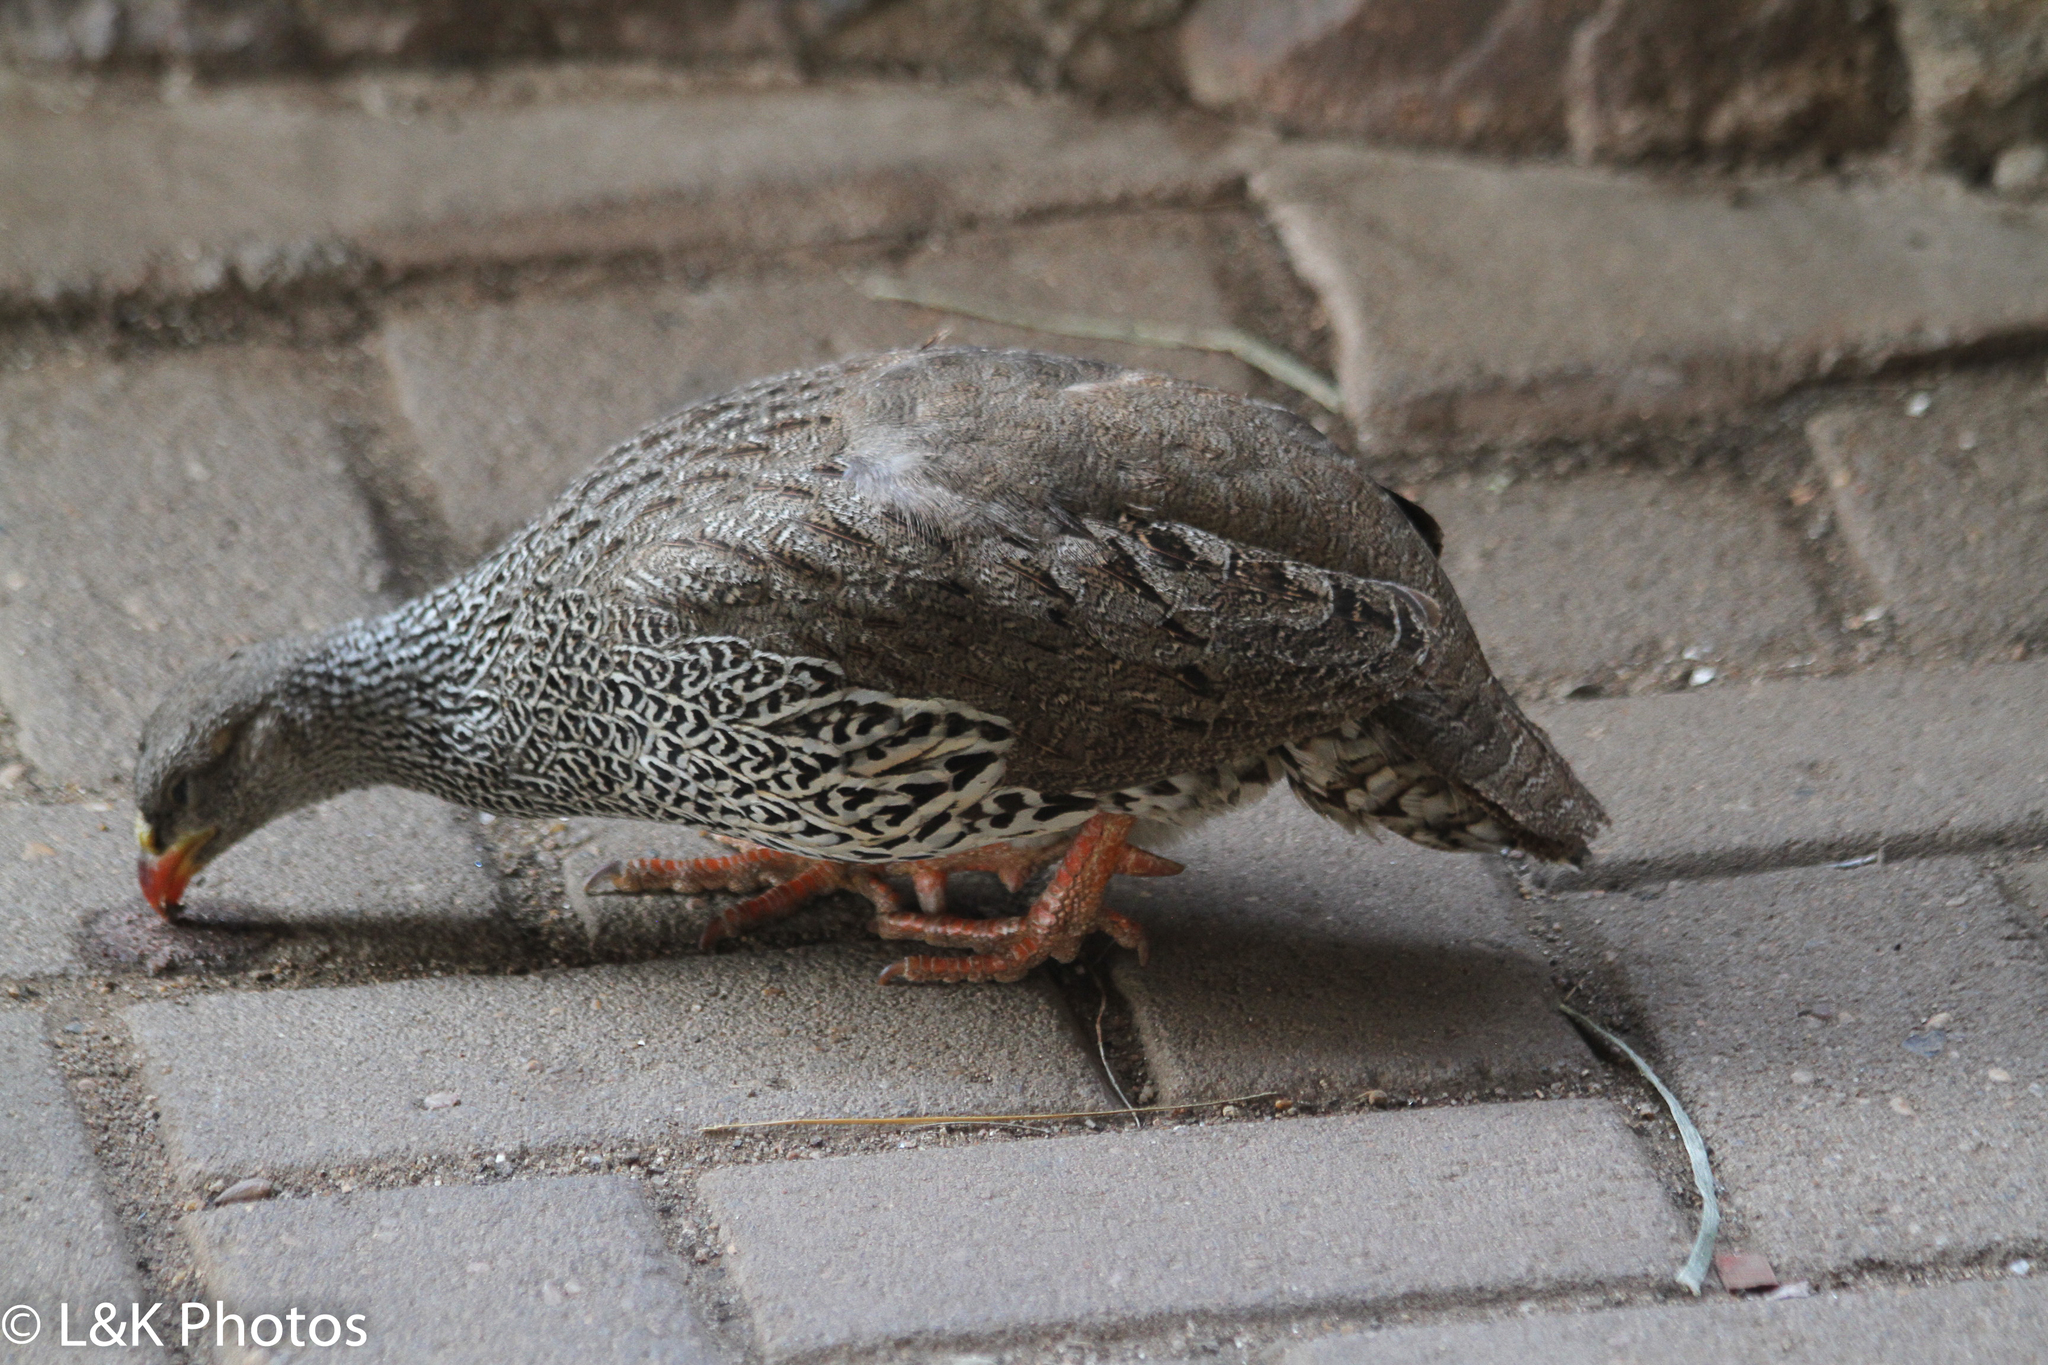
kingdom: Animalia
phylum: Chordata
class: Aves
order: Galliformes
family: Phasianidae
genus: Pternistis
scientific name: Pternistis natalensis
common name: Natal spurfowl
